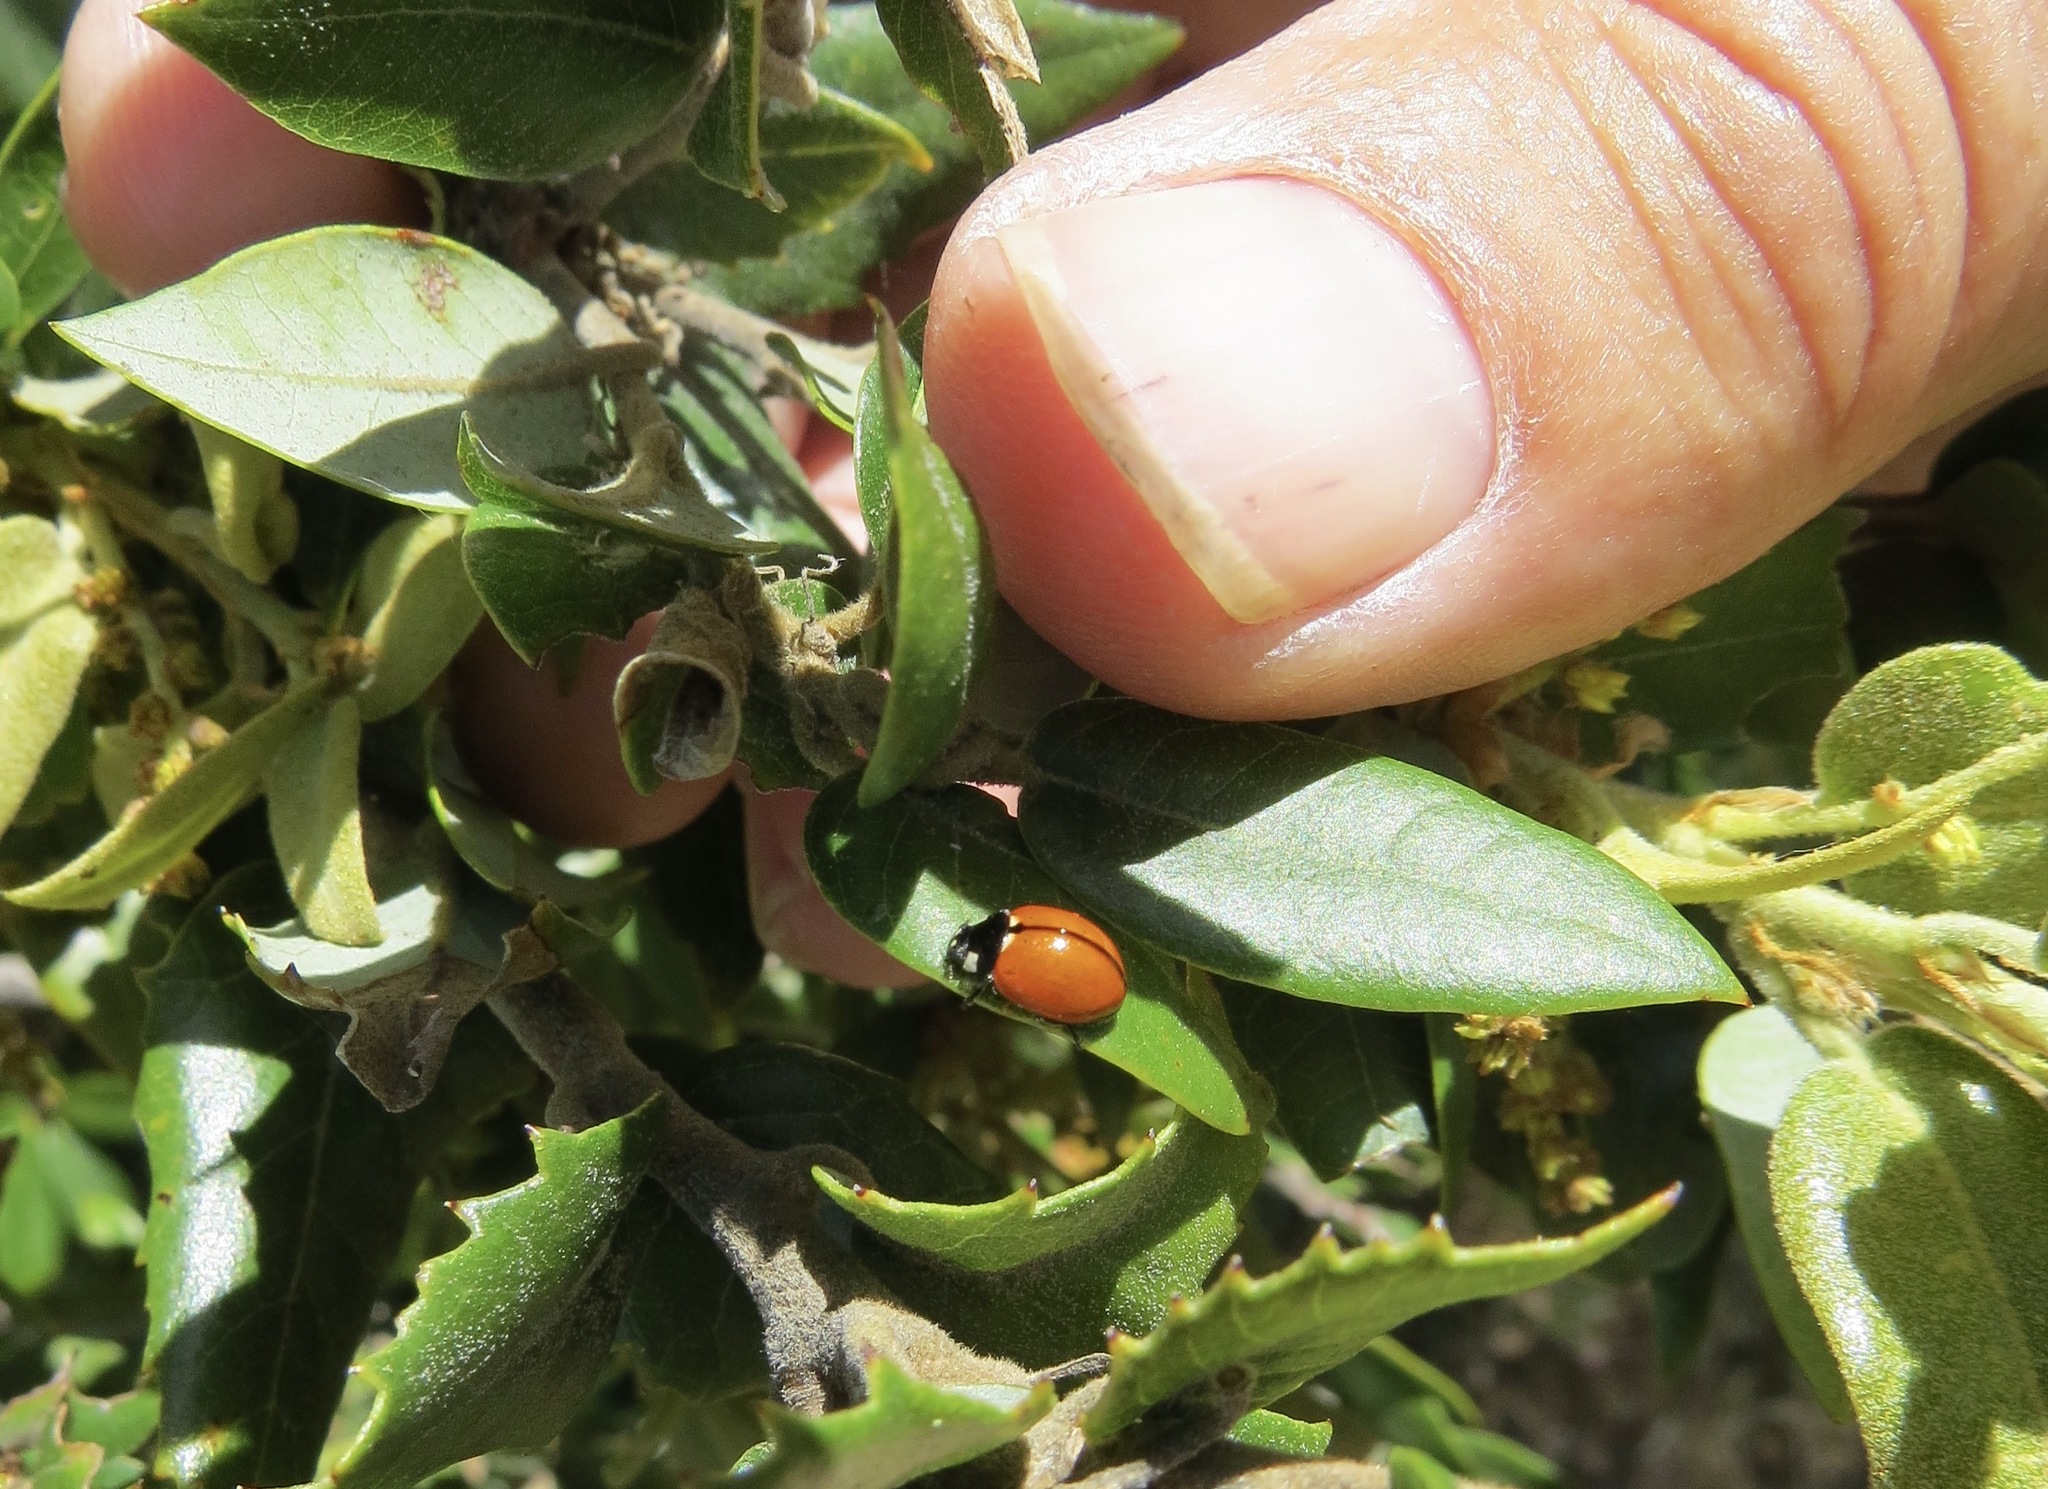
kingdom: Animalia
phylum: Arthropoda
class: Insecta
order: Coleoptera
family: Coccinellidae
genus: Coccinella
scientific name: Coccinella californica
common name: Lady beetle
